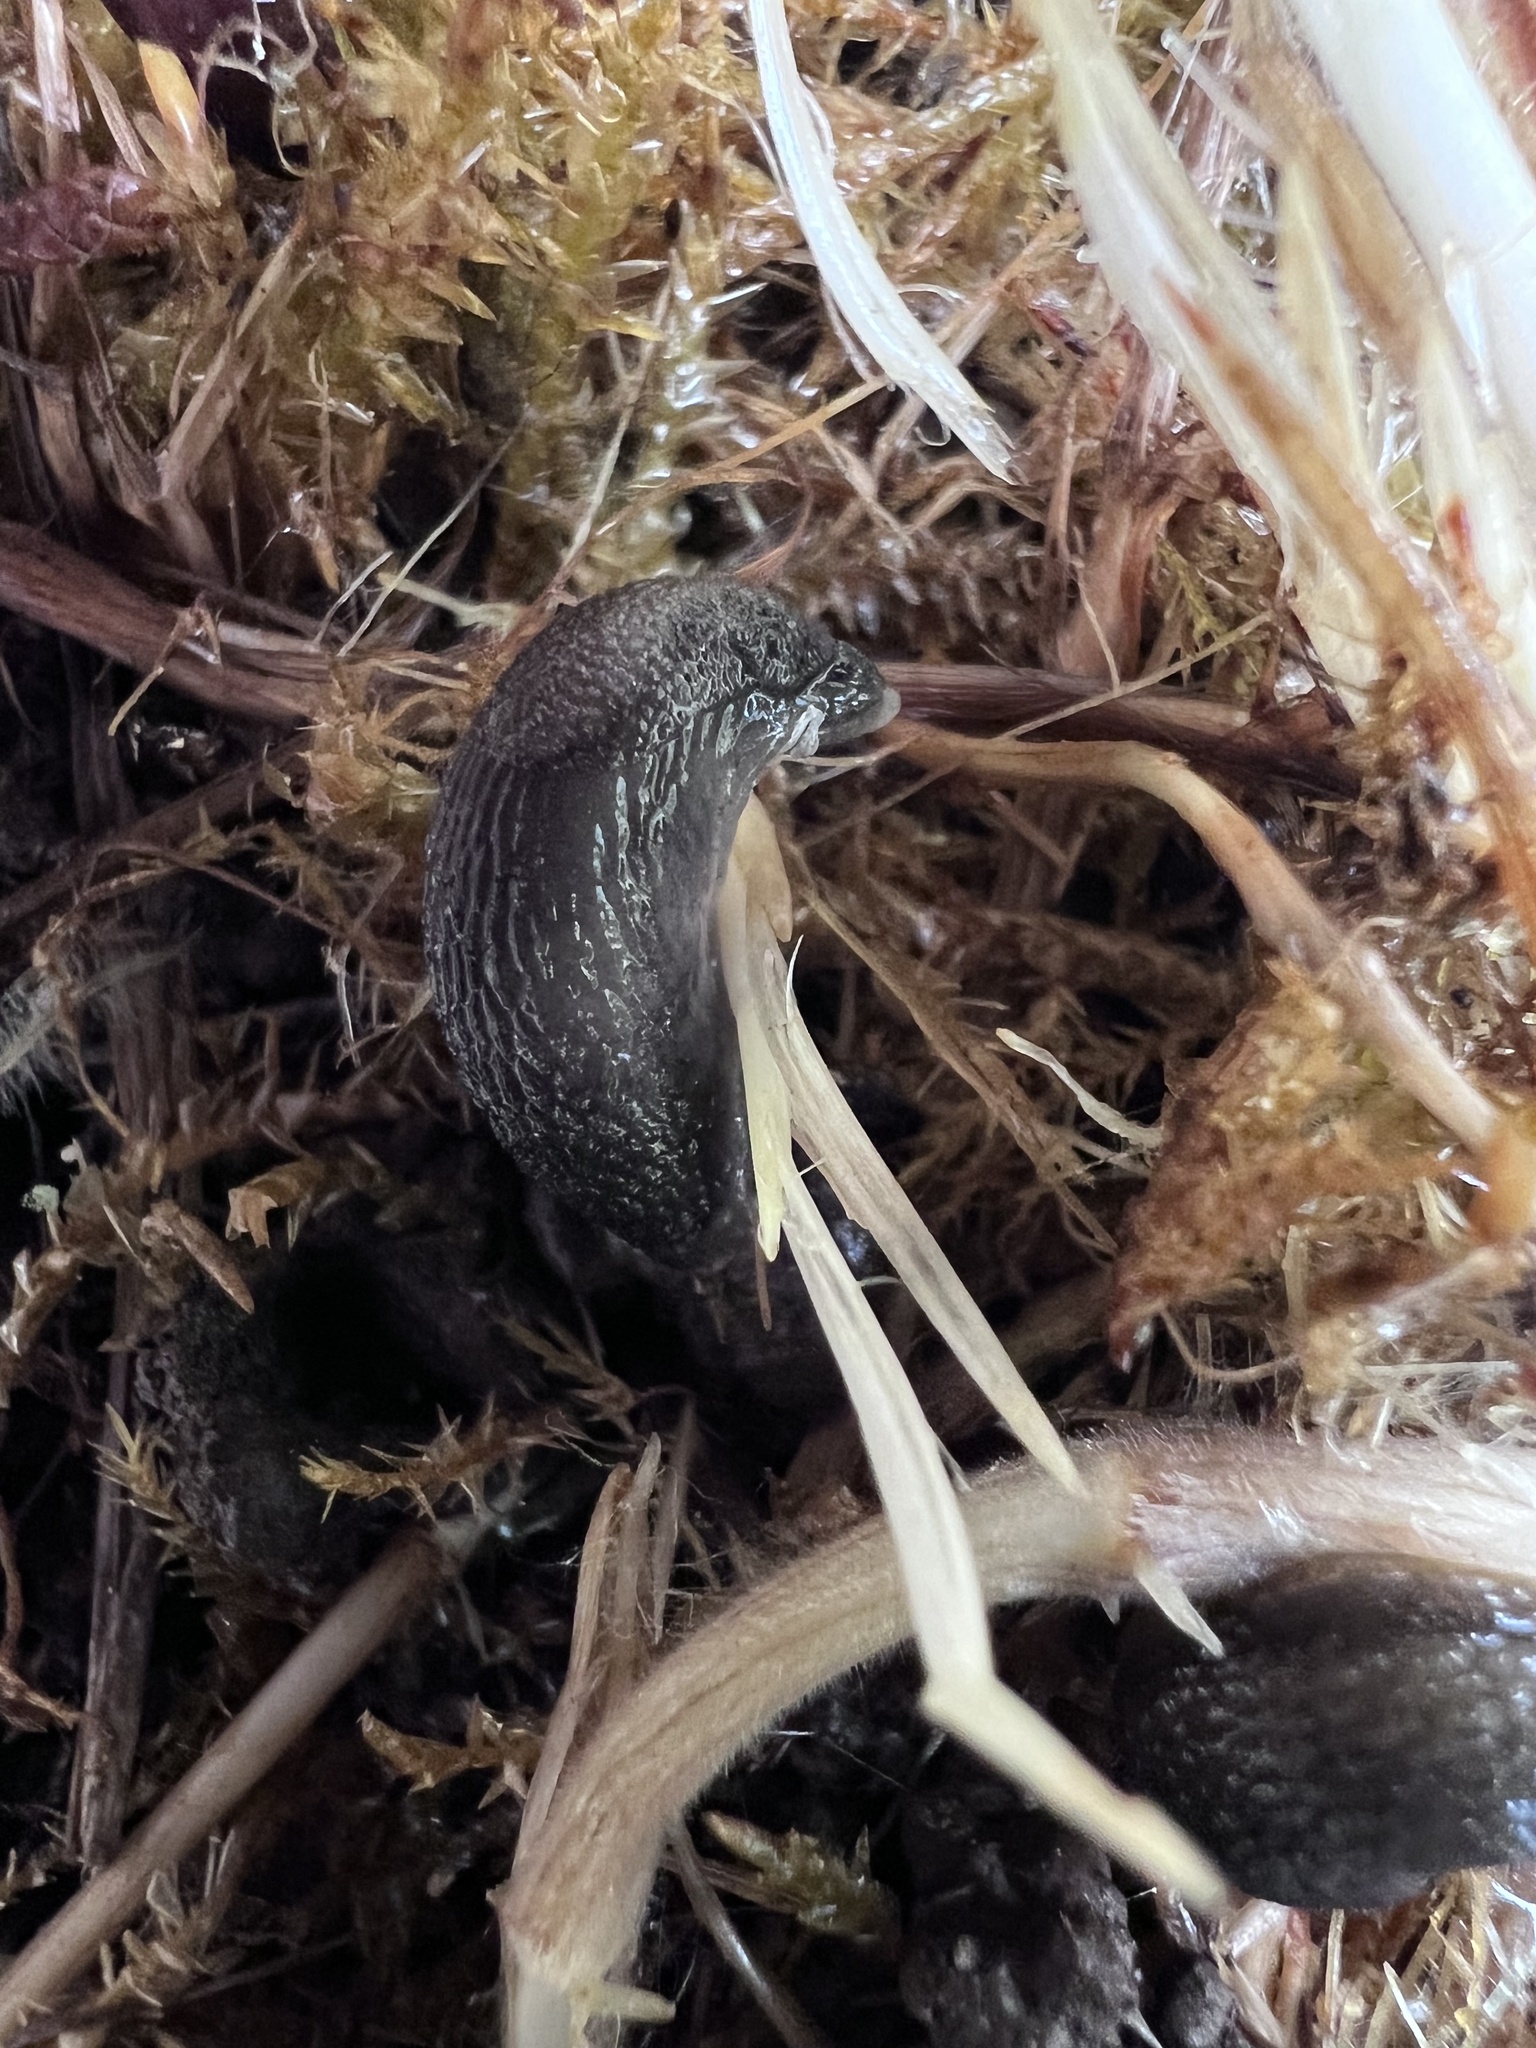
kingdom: Animalia
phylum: Mollusca
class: Gastropoda
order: Stylommatophora
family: Arionidae
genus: Arion
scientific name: Arion intermedius
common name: Hedgehog slug
